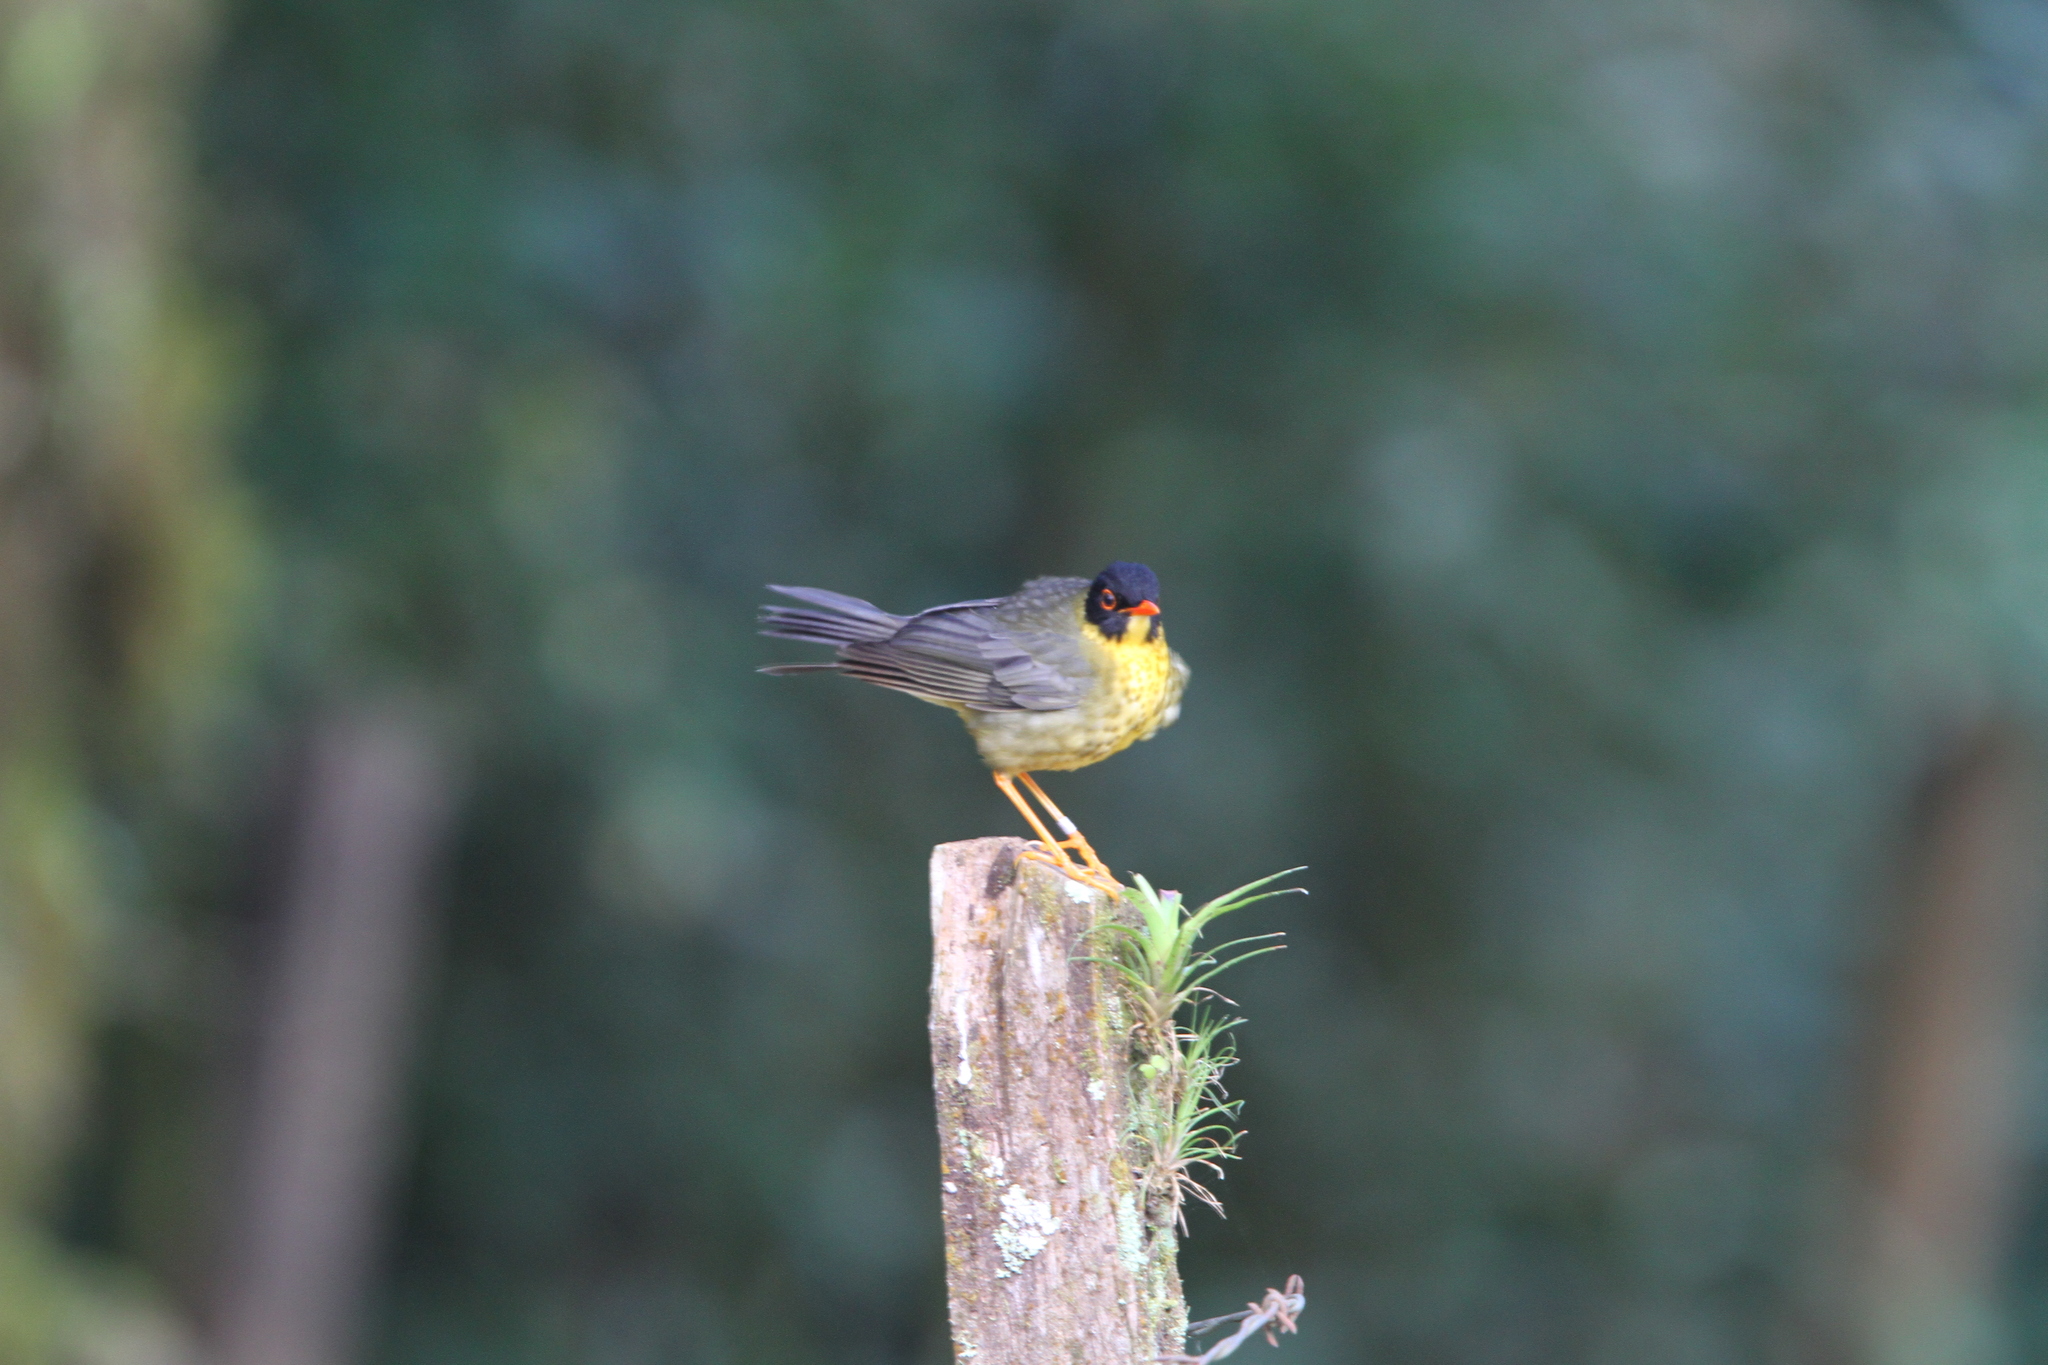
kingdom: Animalia
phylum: Chordata
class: Aves
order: Passeriformes
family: Turdidae
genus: Catharus
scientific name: Catharus dryas
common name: Spotted nightingale-thrush
